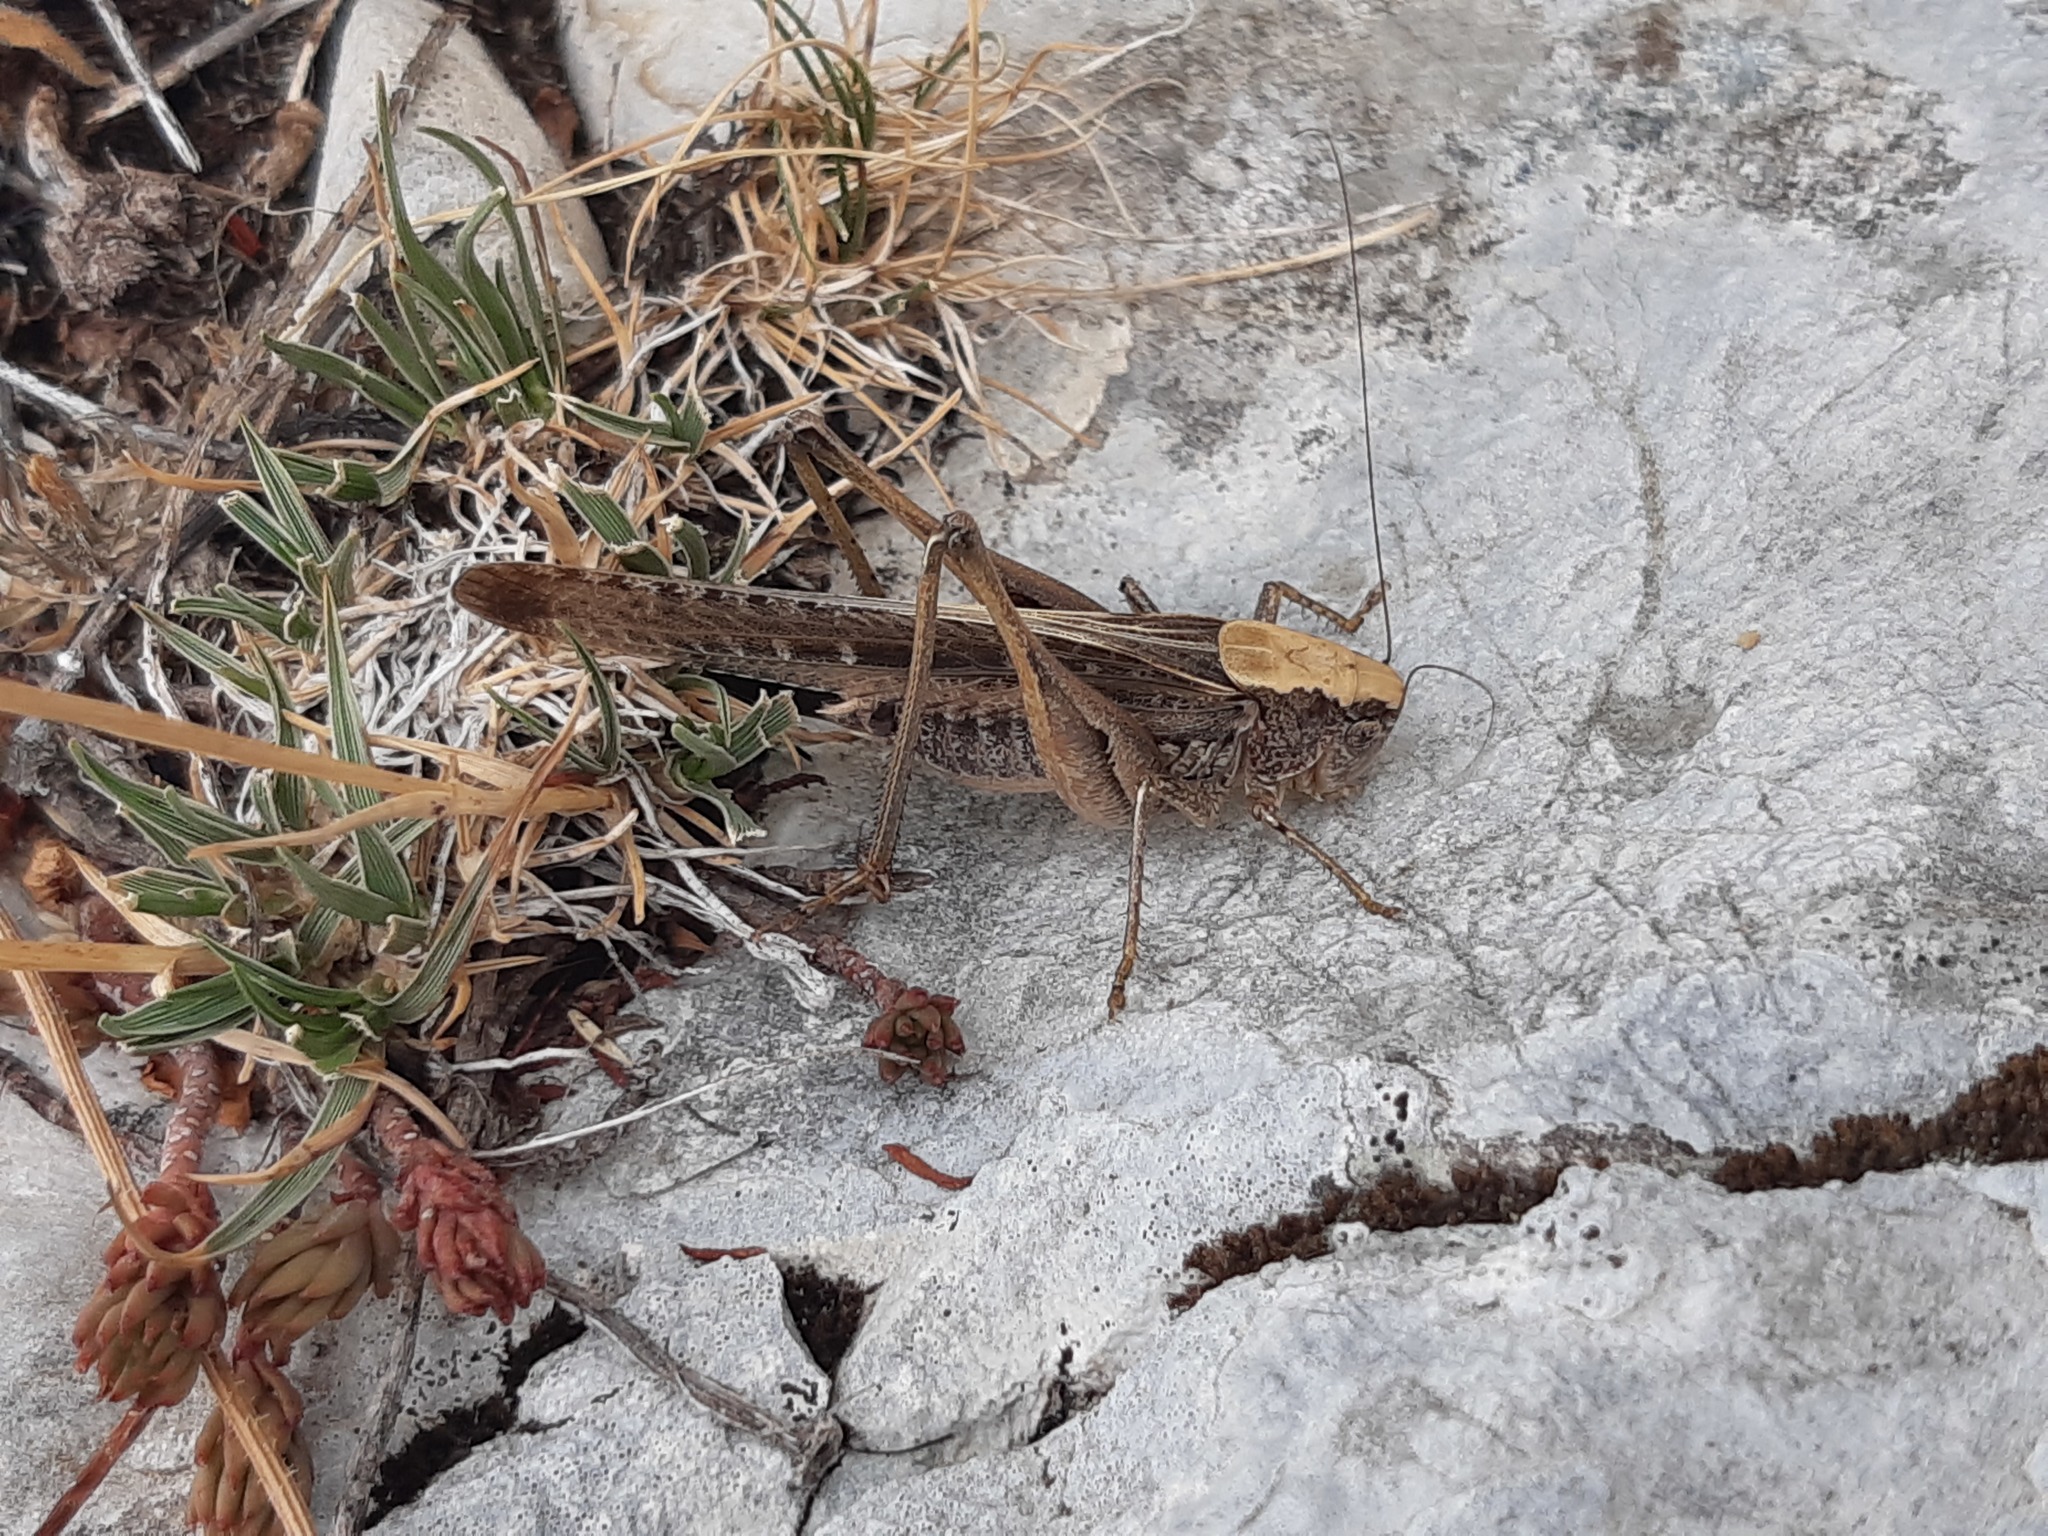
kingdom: Animalia
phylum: Arthropoda
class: Insecta
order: Orthoptera
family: Tettigoniidae
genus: Platycleis
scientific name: Platycleis grisea
